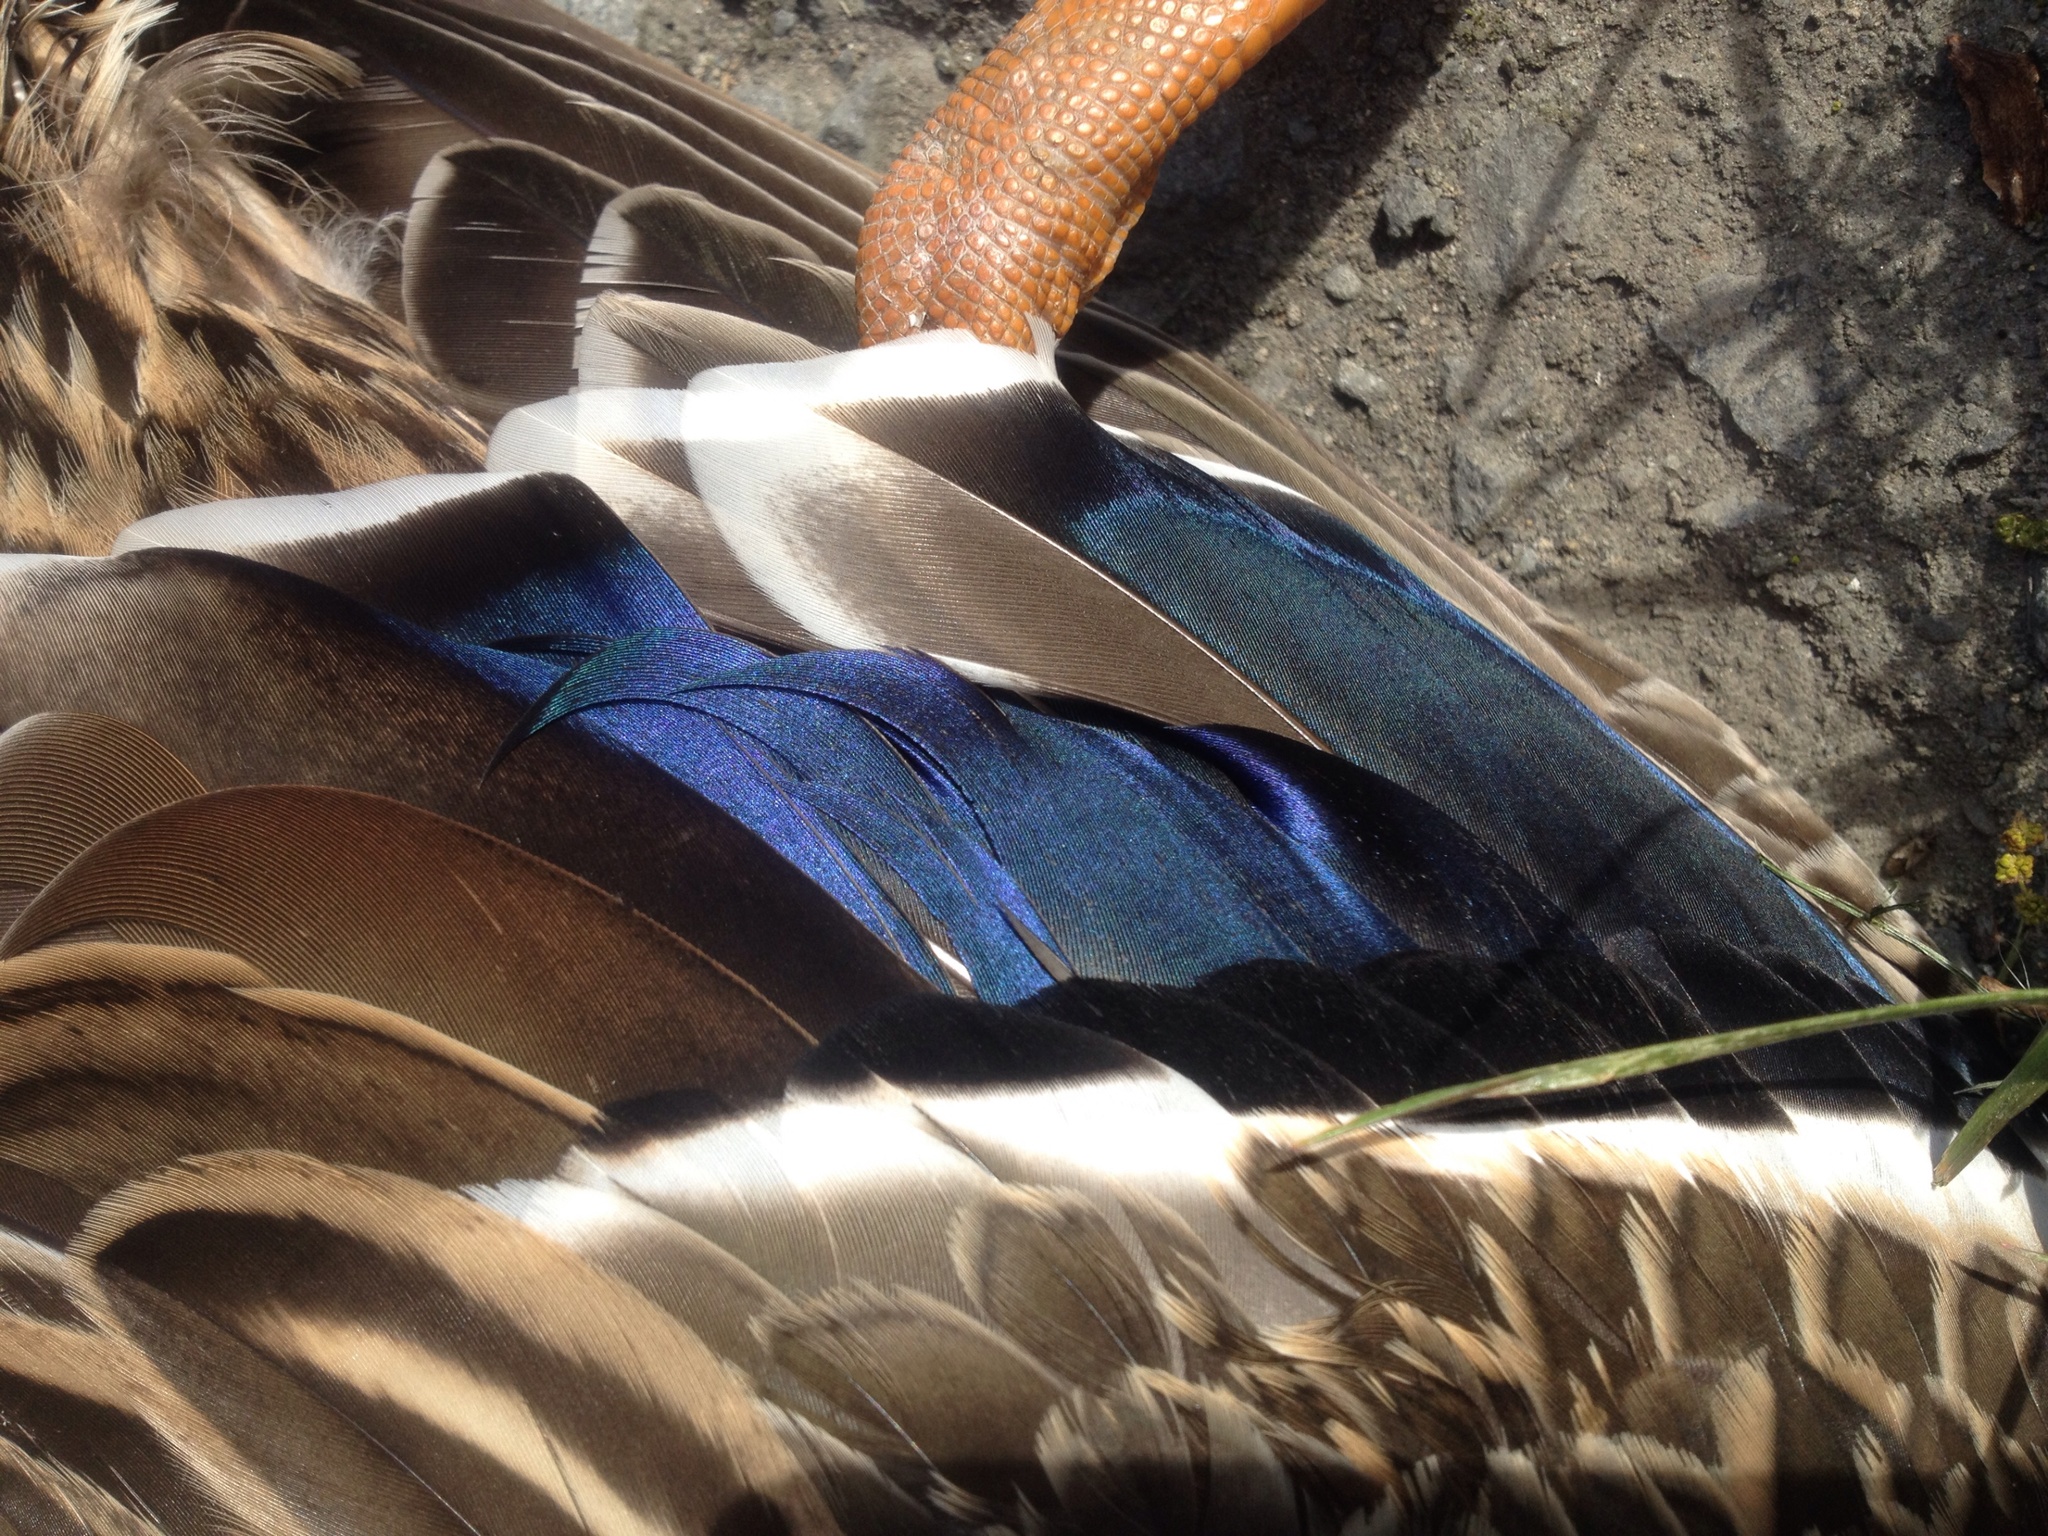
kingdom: Animalia
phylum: Chordata
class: Aves
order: Anseriformes
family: Anatidae
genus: Anas
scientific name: Anas platyrhynchos
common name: Mallard
